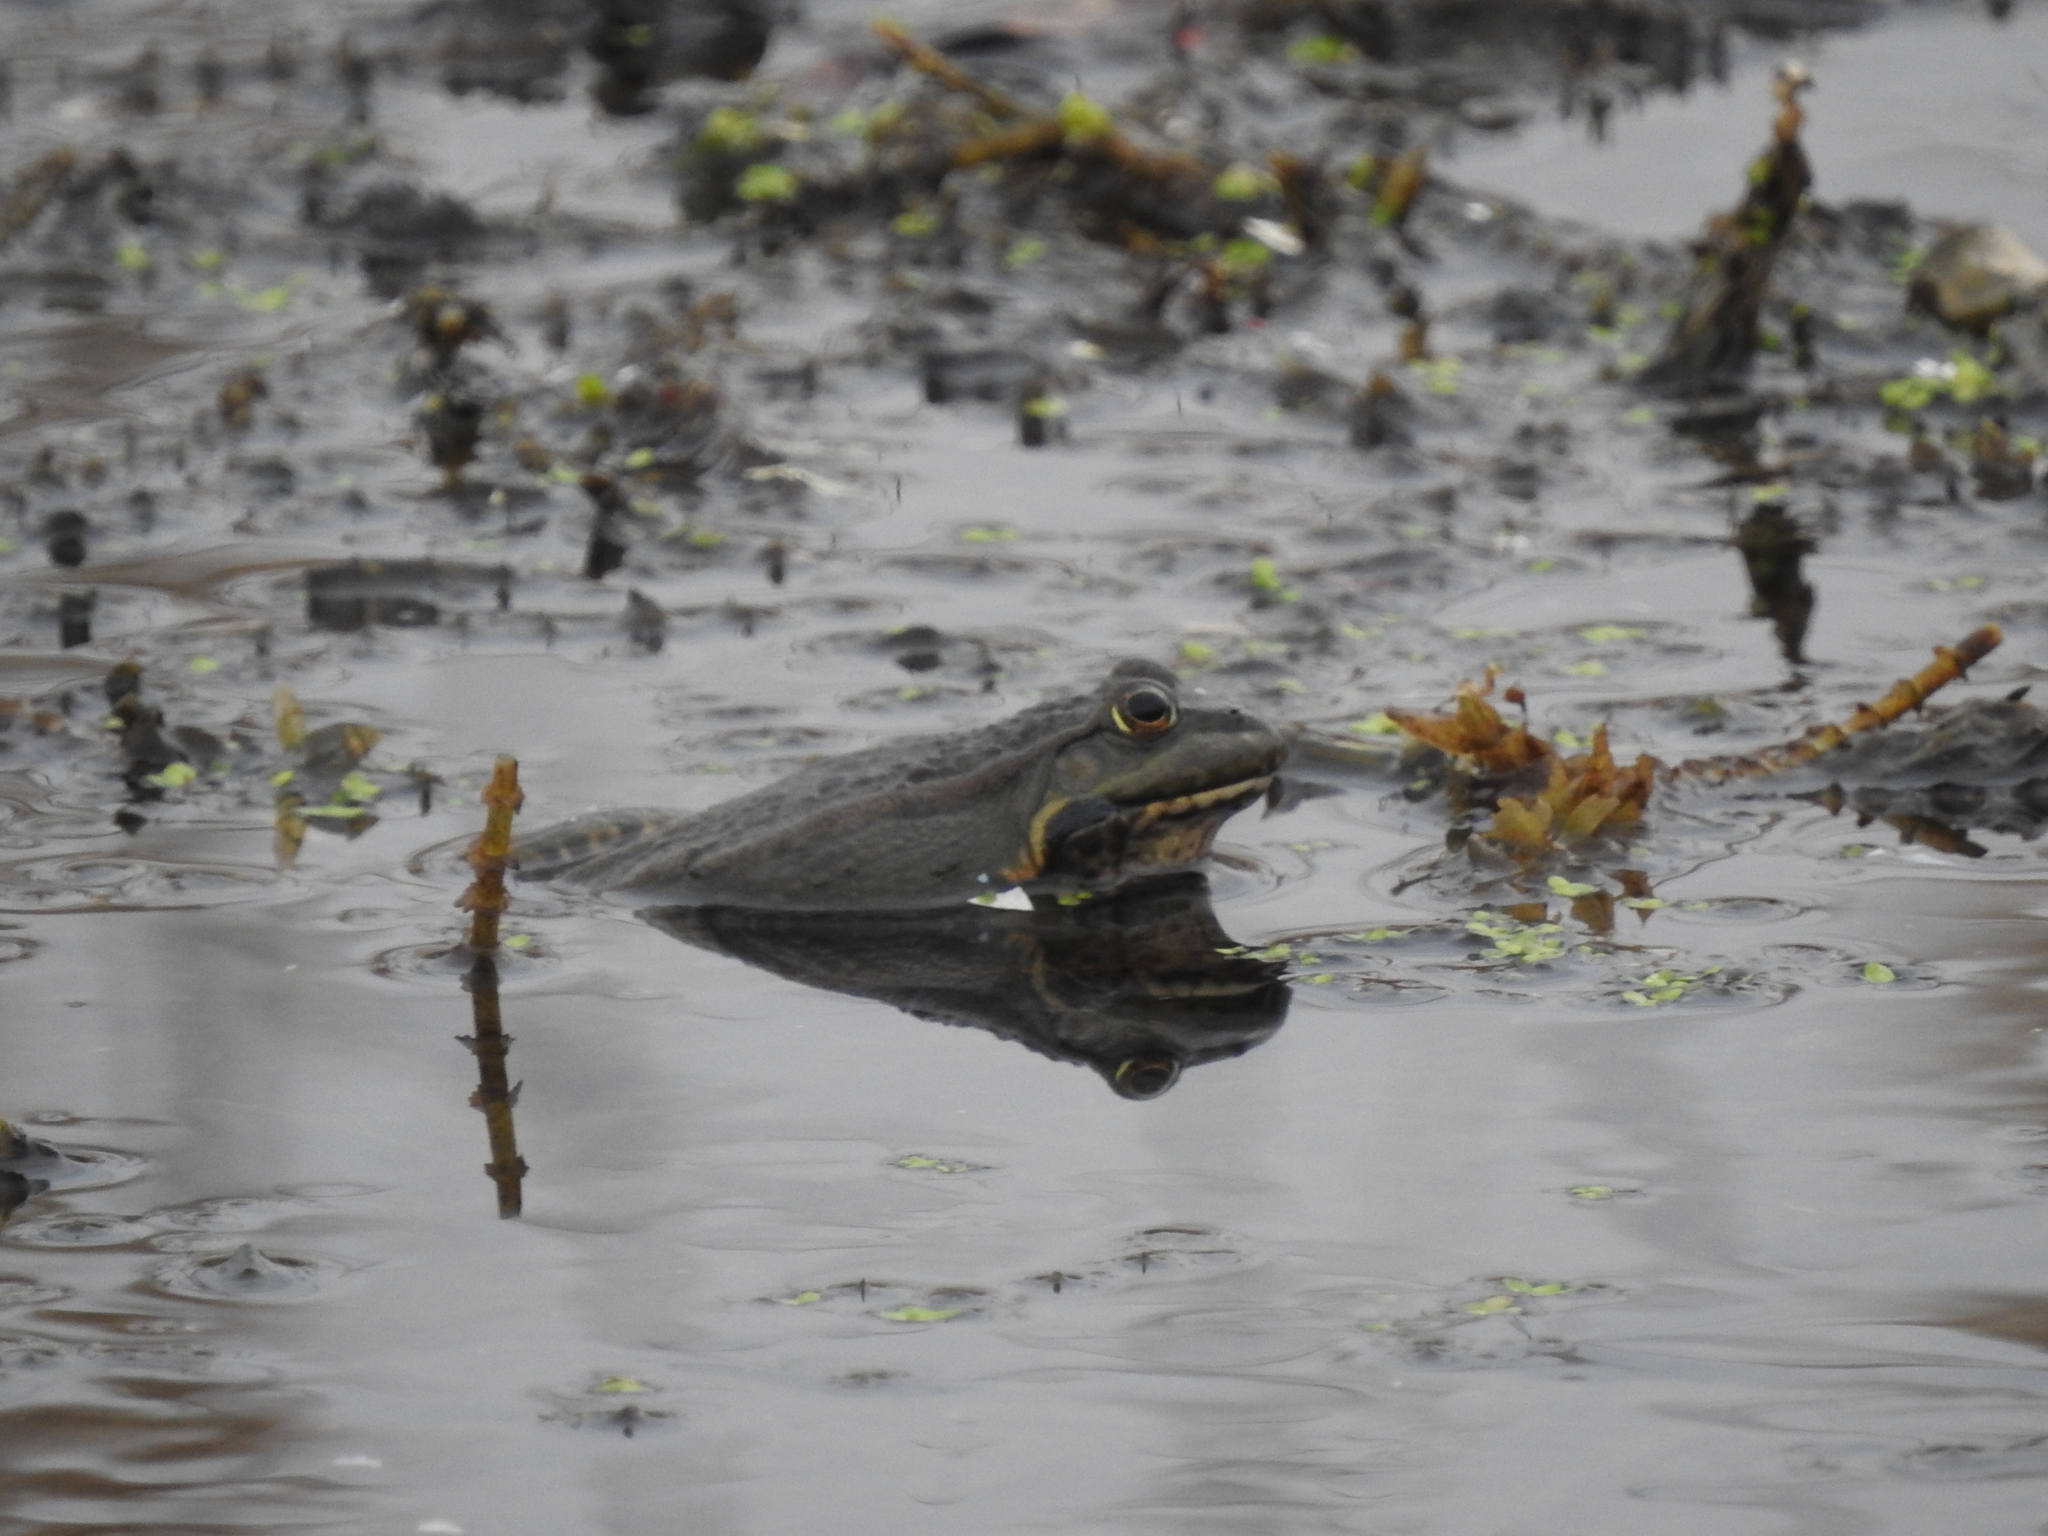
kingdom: Animalia
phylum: Chordata
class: Amphibia
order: Anura
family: Ranidae
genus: Pelophylax
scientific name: Pelophylax ridibundus
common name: Marsh frog
